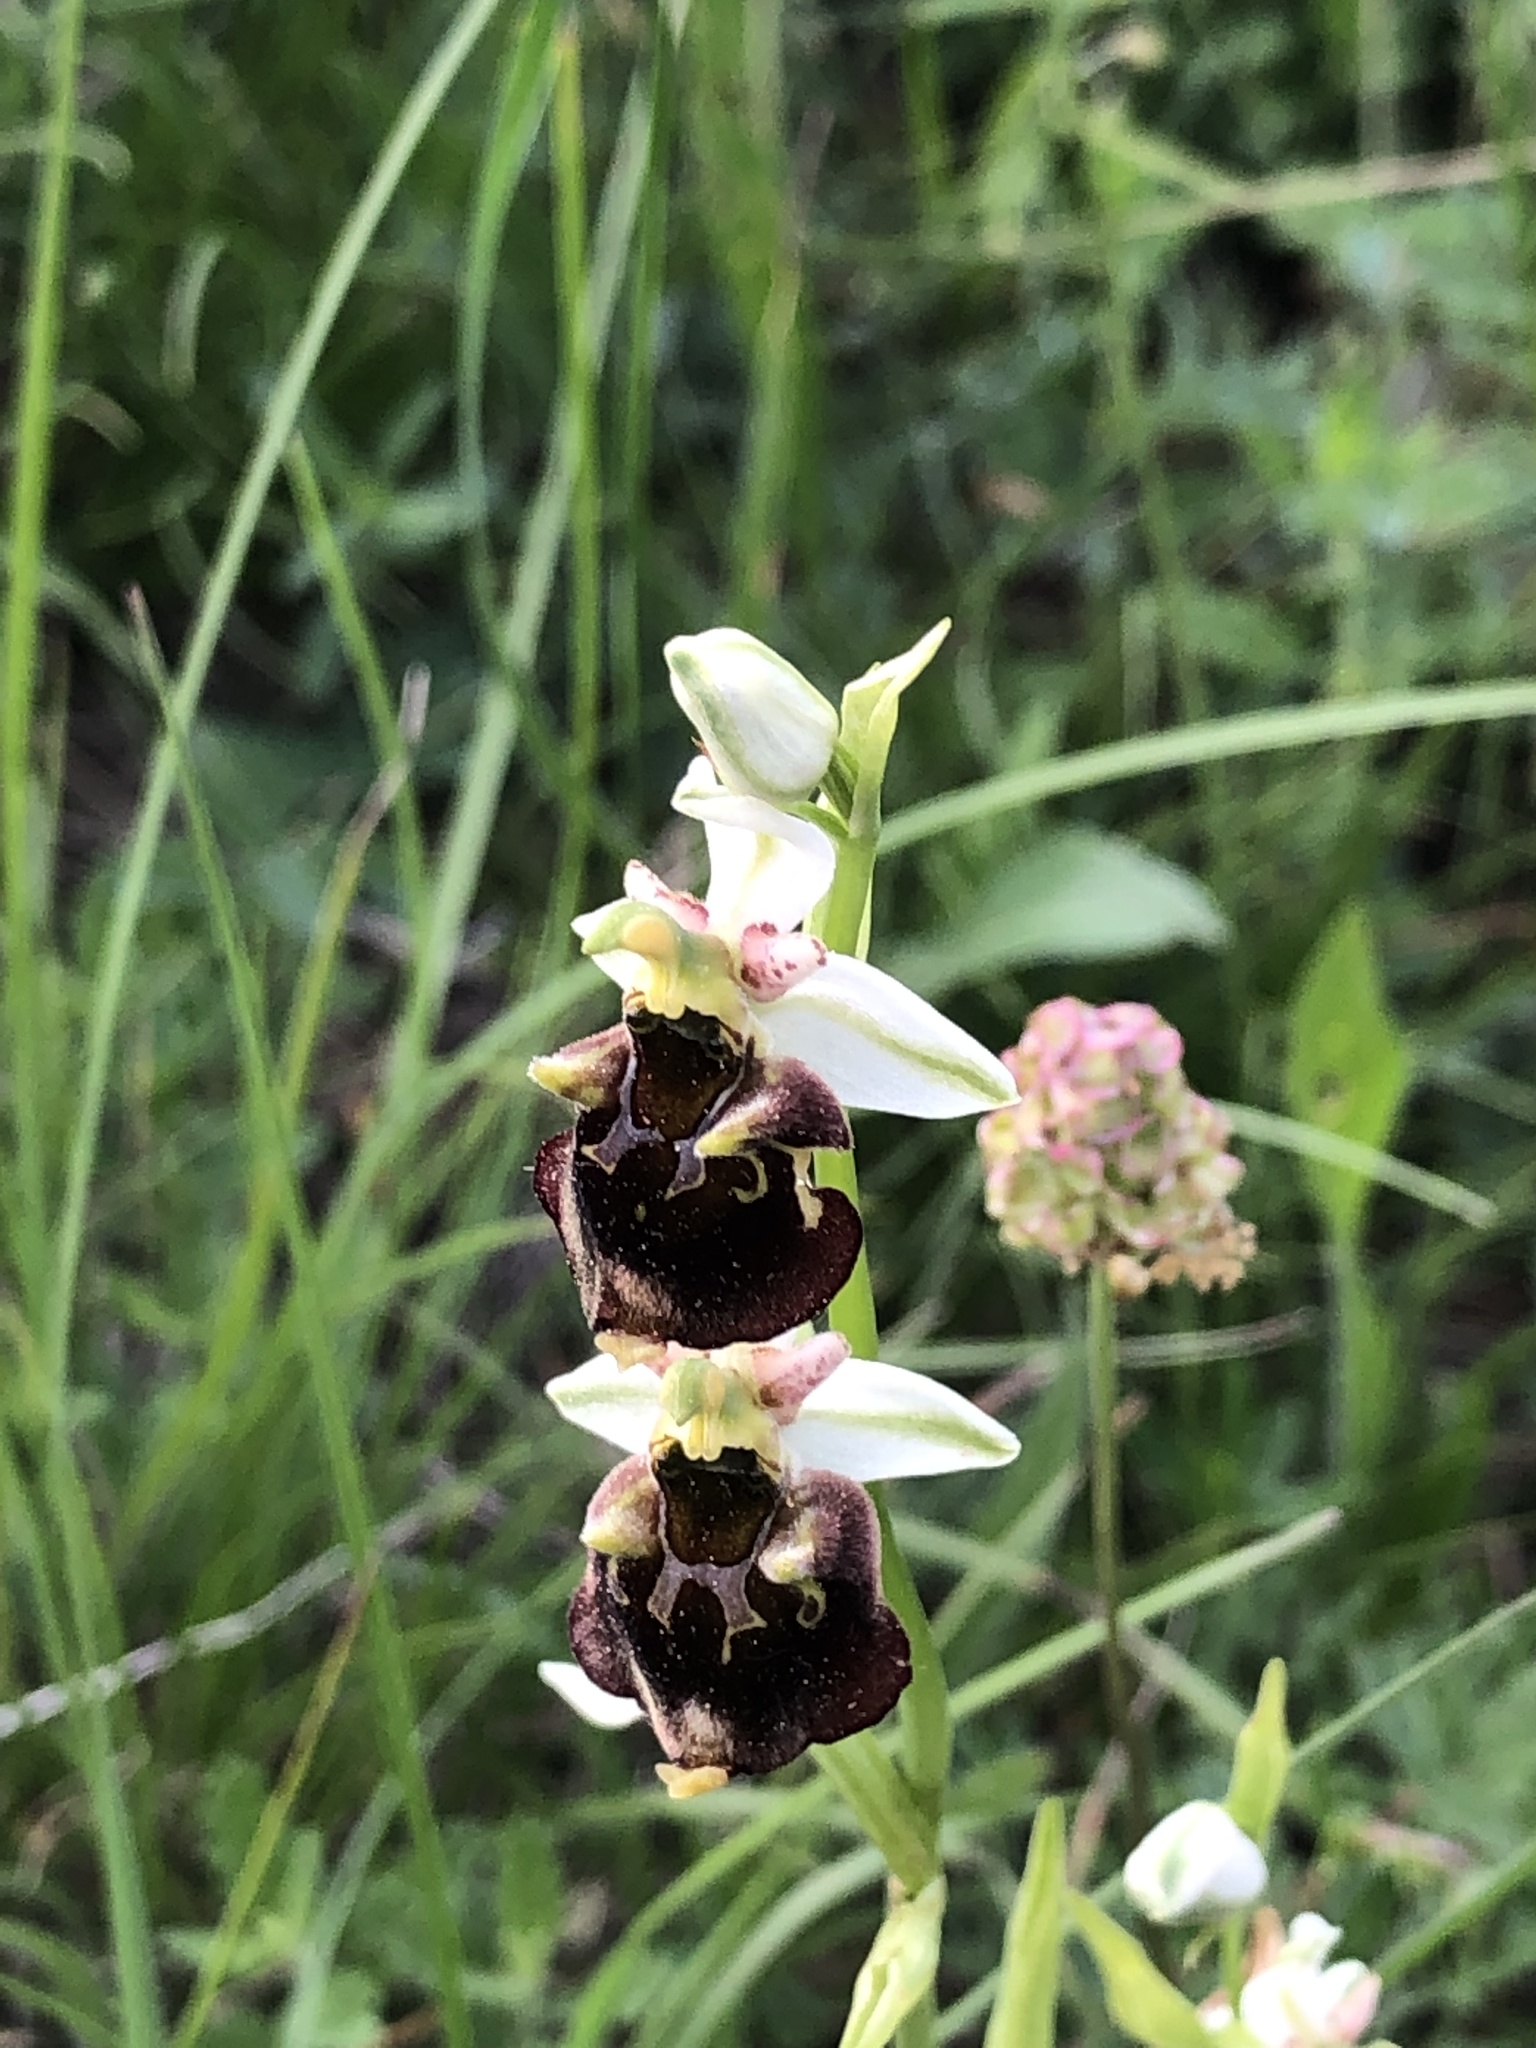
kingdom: Plantae
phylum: Tracheophyta
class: Liliopsida
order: Asparagales
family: Orchidaceae
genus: Ophrys
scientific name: Ophrys holosericea
